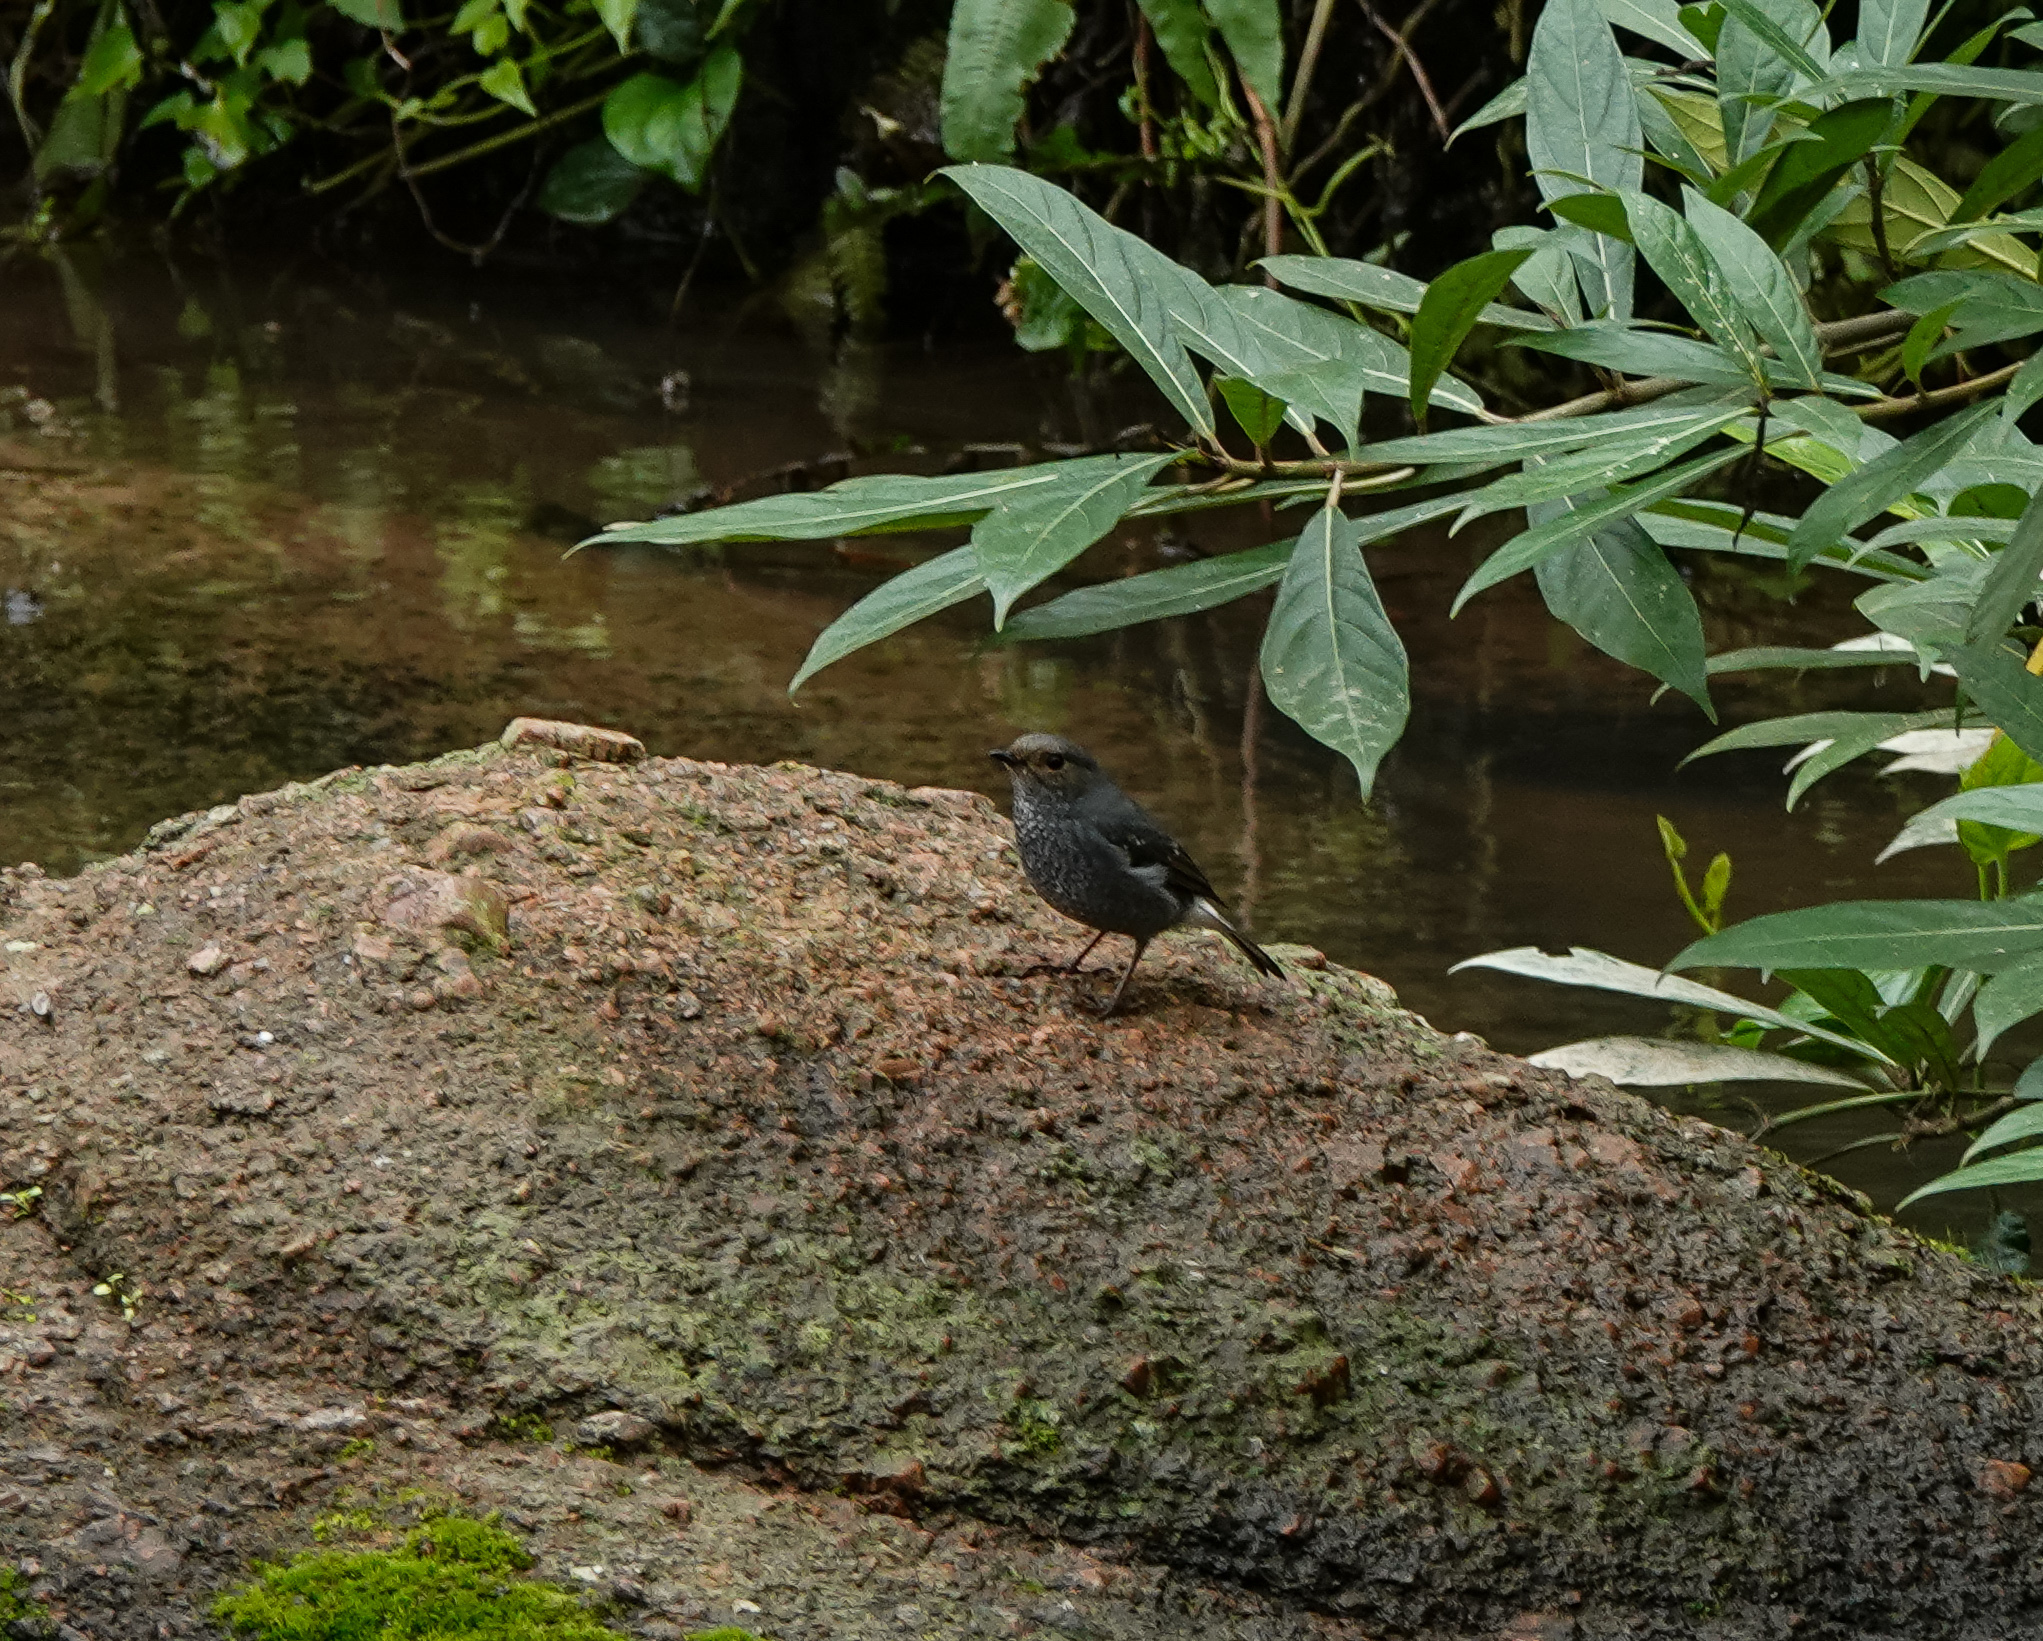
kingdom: Animalia
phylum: Chordata
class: Aves
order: Passeriformes
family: Muscicapidae
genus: Phoenicurus
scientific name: Phoenicurus fuliginosus
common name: Plumbeous water redstart
